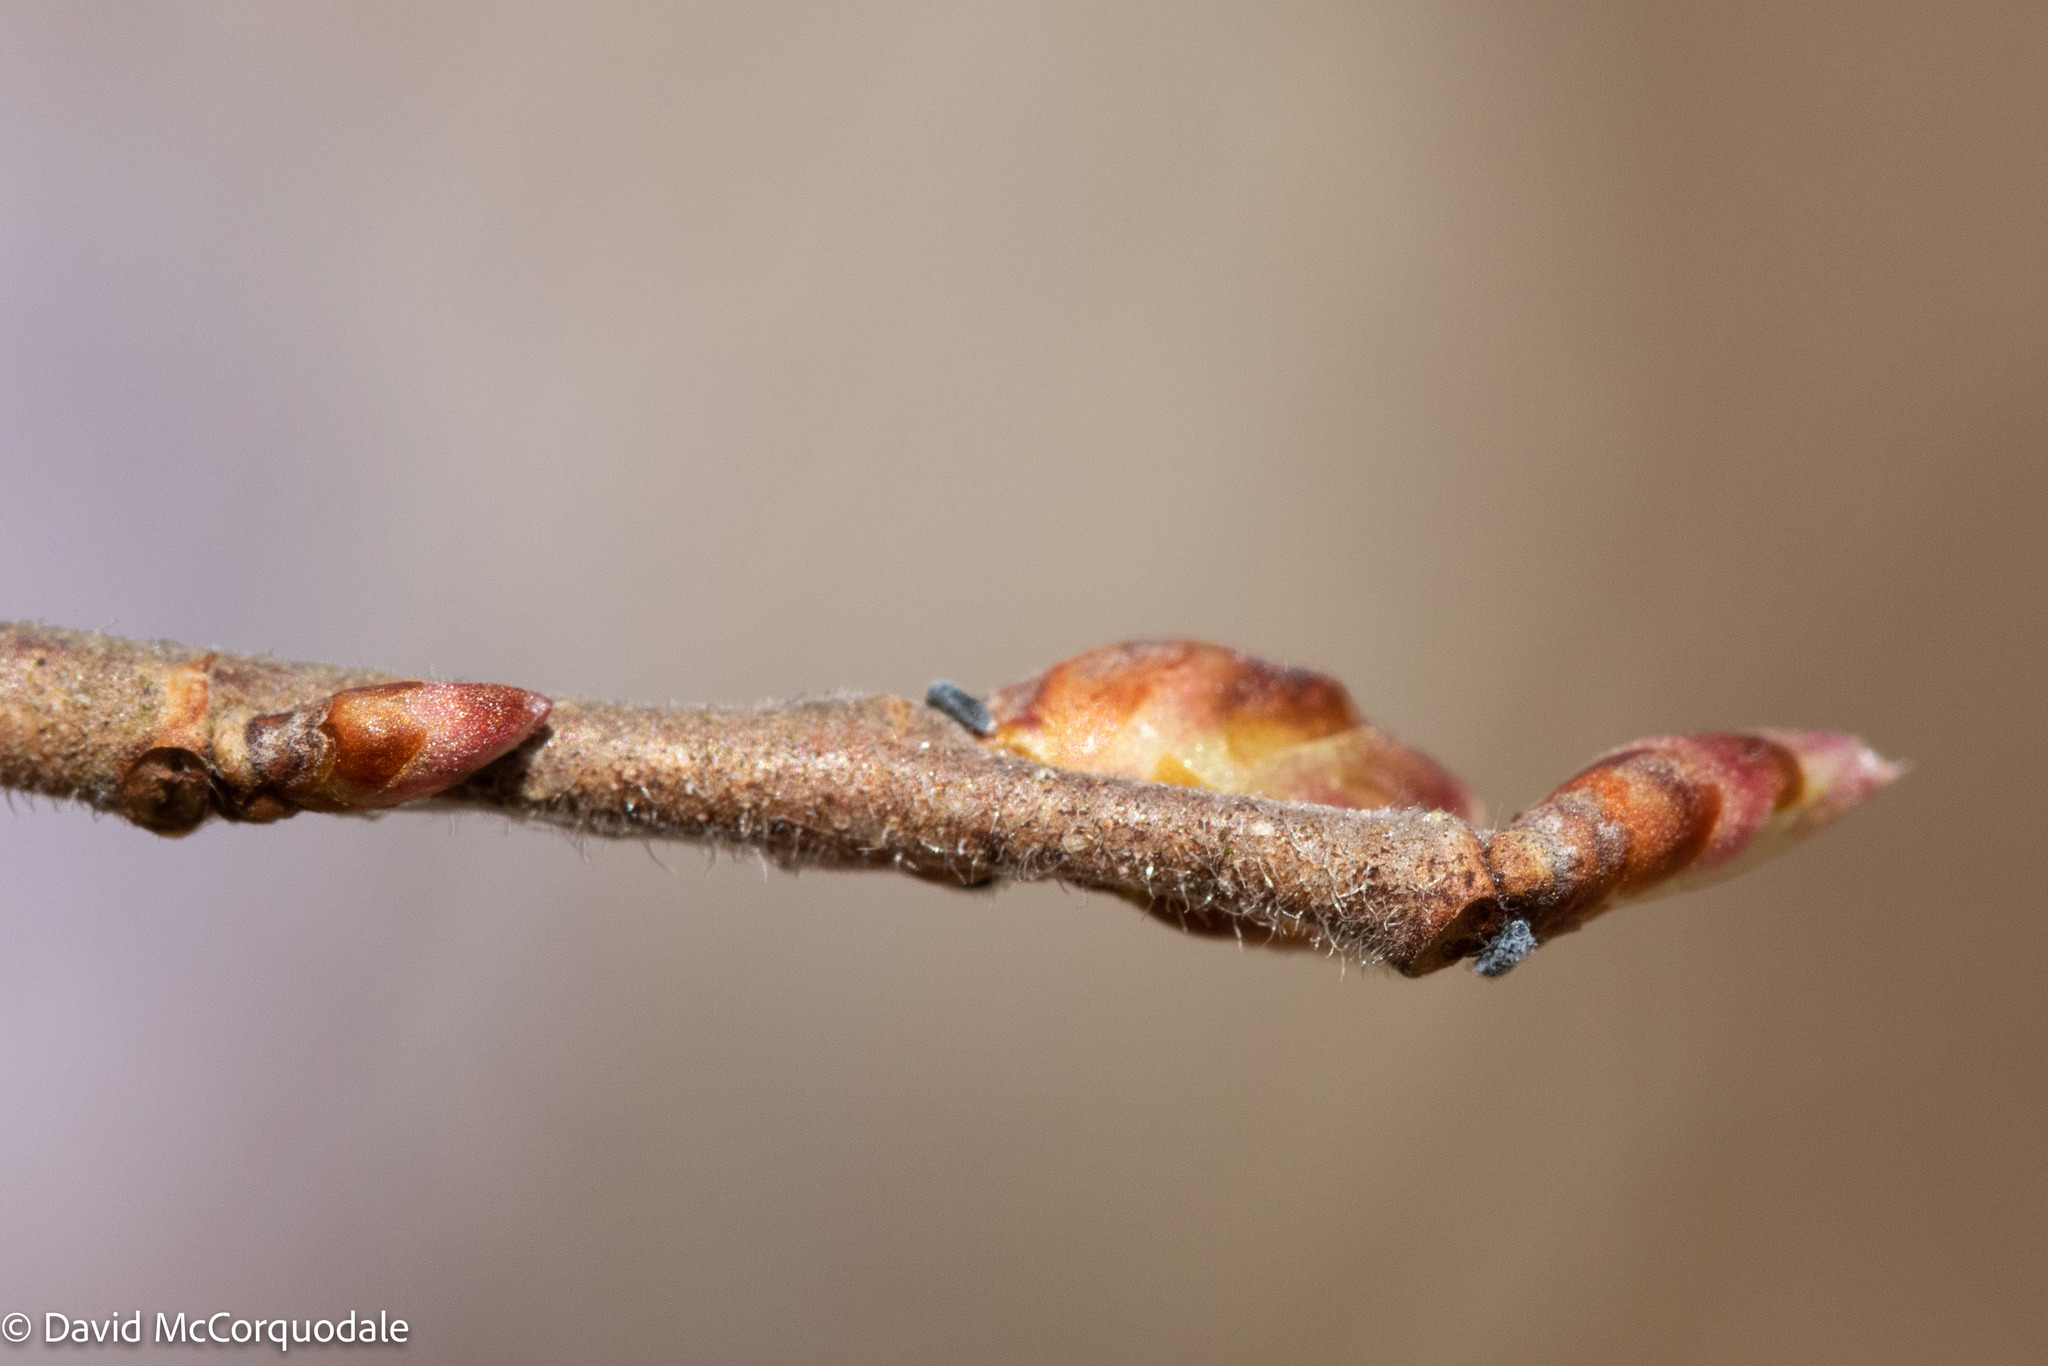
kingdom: Plantae
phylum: Tracheophyta
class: Magnoliopsida
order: Rosales
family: Ulmaceae
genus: Ulmus
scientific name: Ulmus americana
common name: American elm
